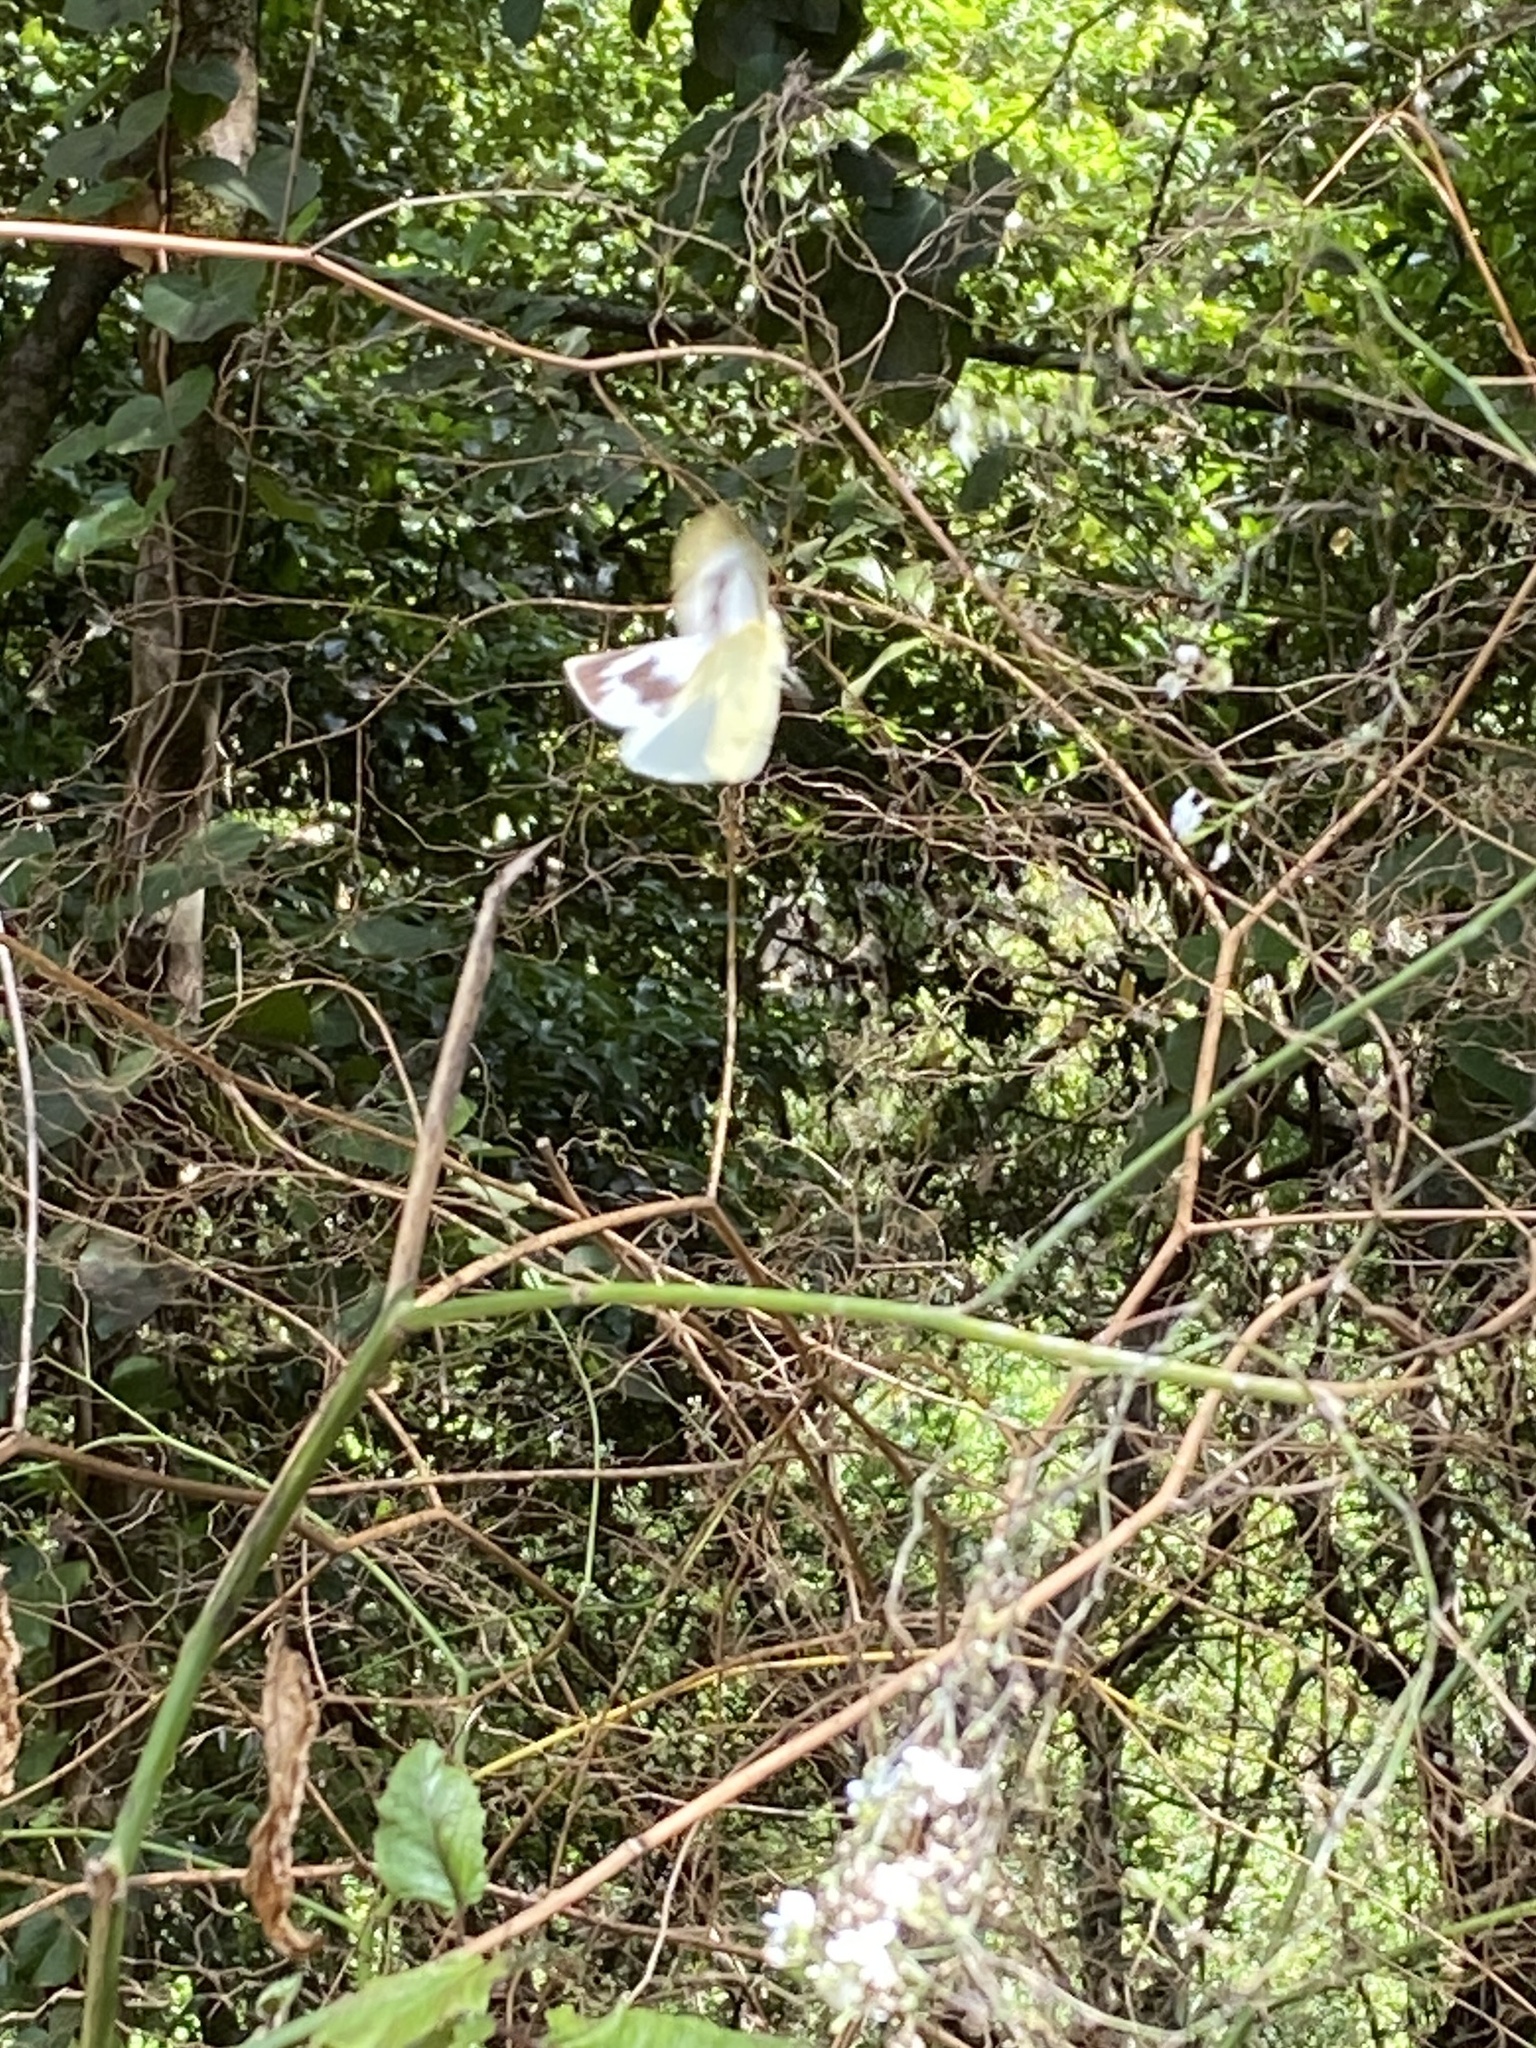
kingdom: Animalia
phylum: Arthropoda
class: Insecta
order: Lepidoptera
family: Pieridae
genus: Pieris
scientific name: Pieris cheiranthi
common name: Canary islands large white
